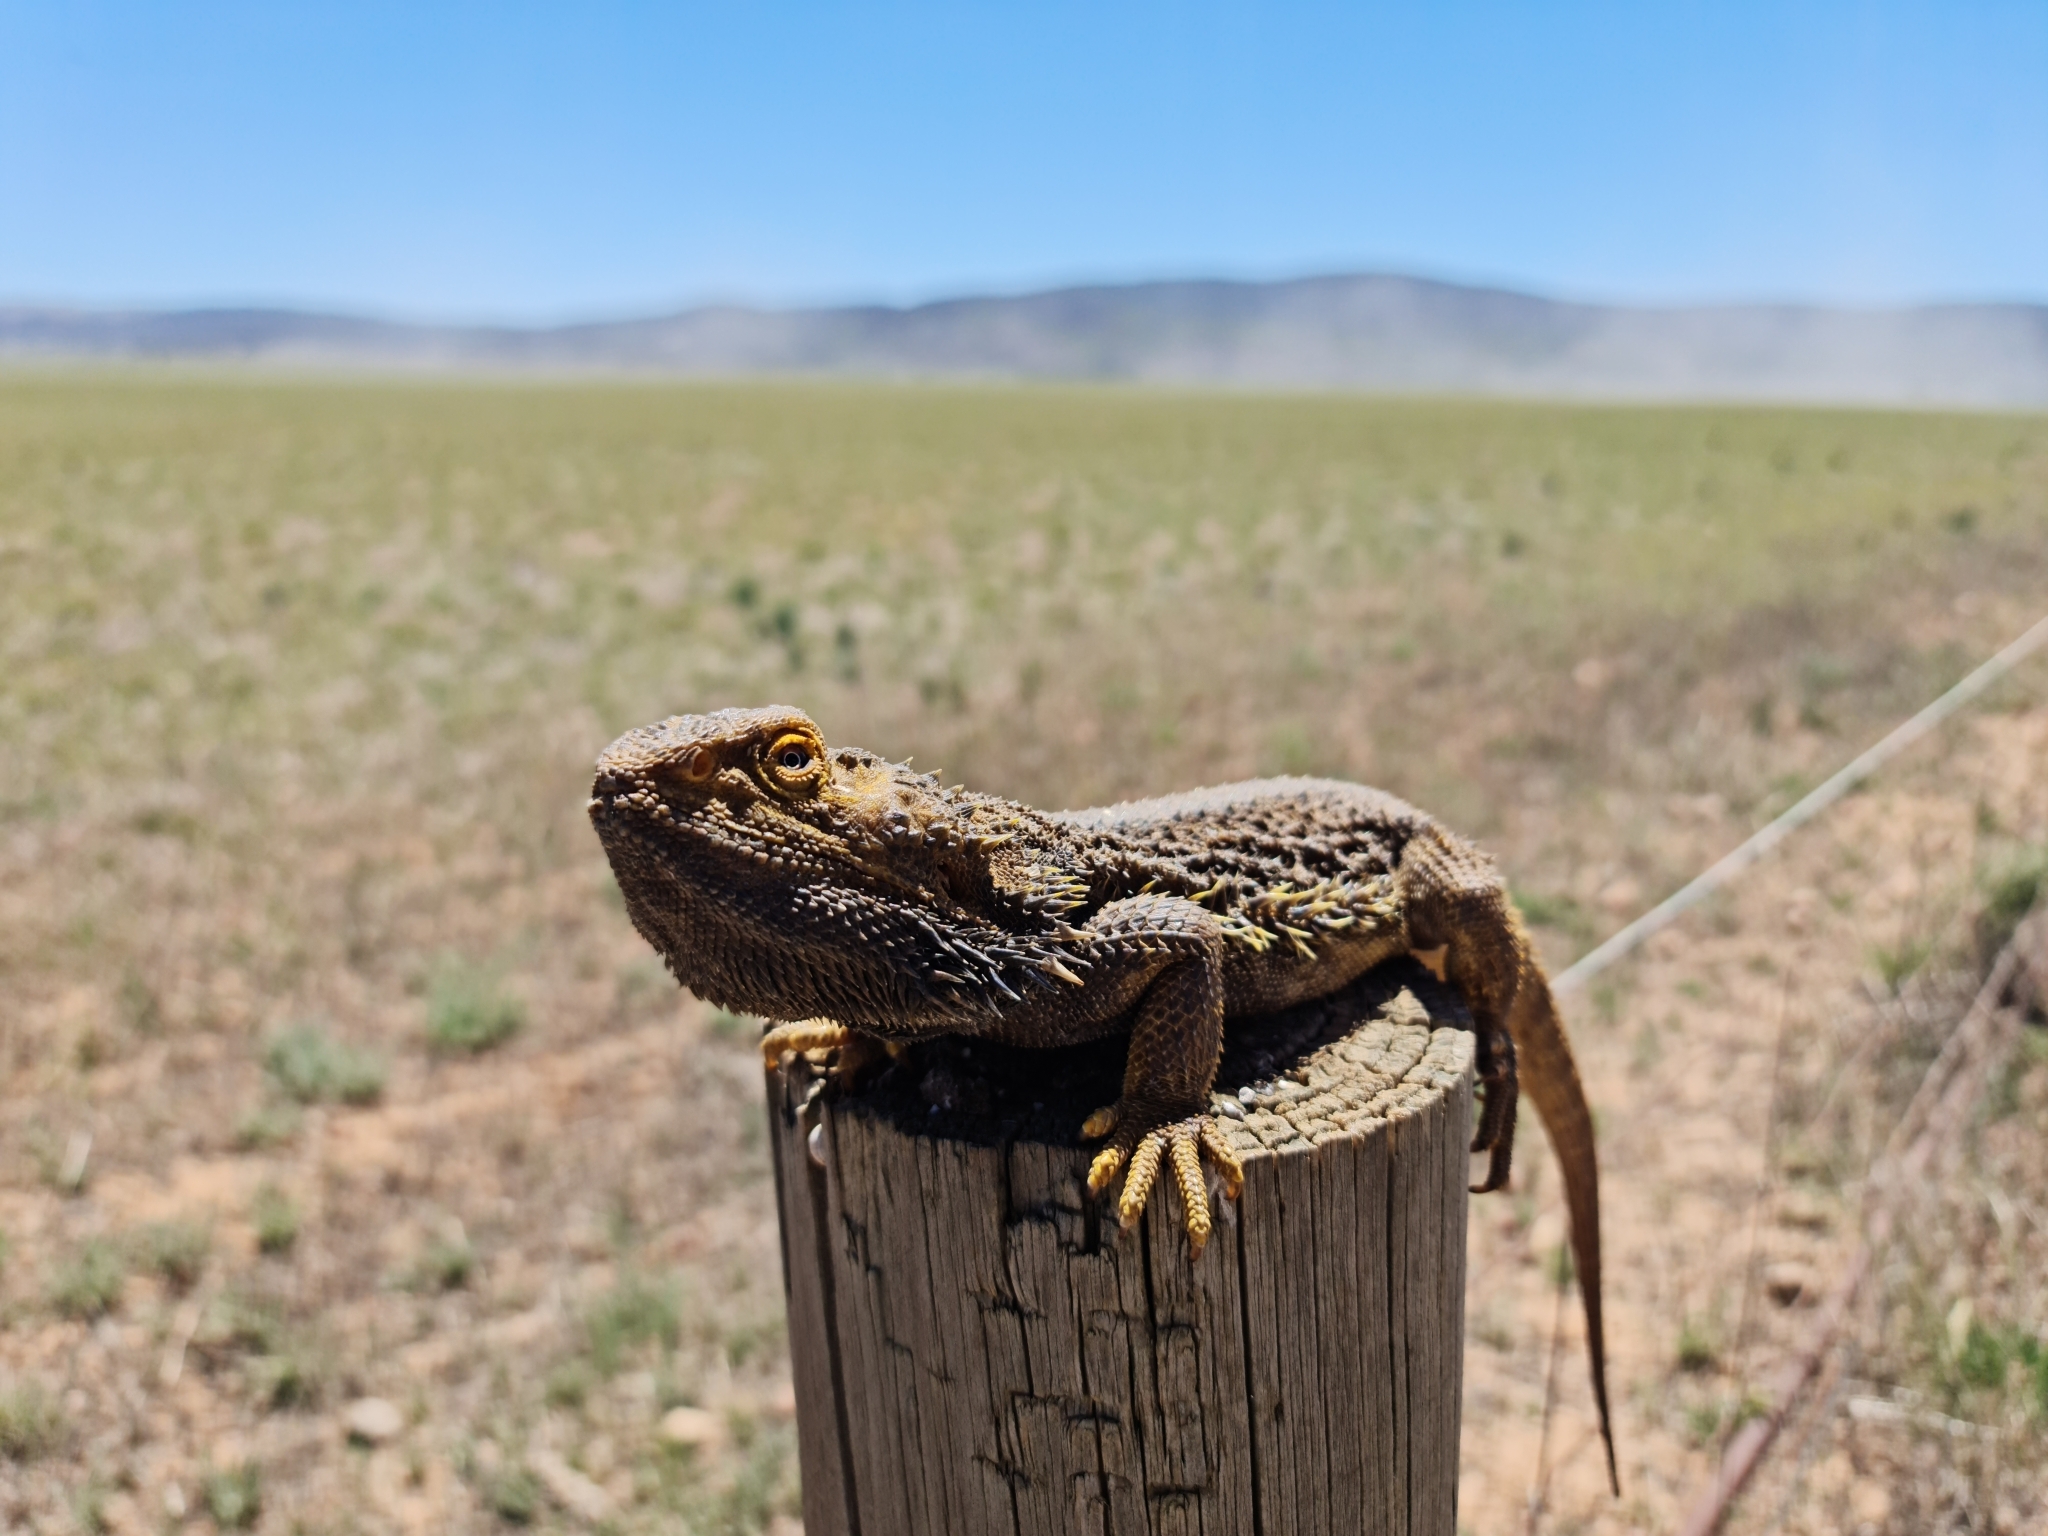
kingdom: Animalia
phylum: Chordata
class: Squamata
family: Agamidae
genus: Pogona
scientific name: Pogona vitticeps
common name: Central bearded dragon
